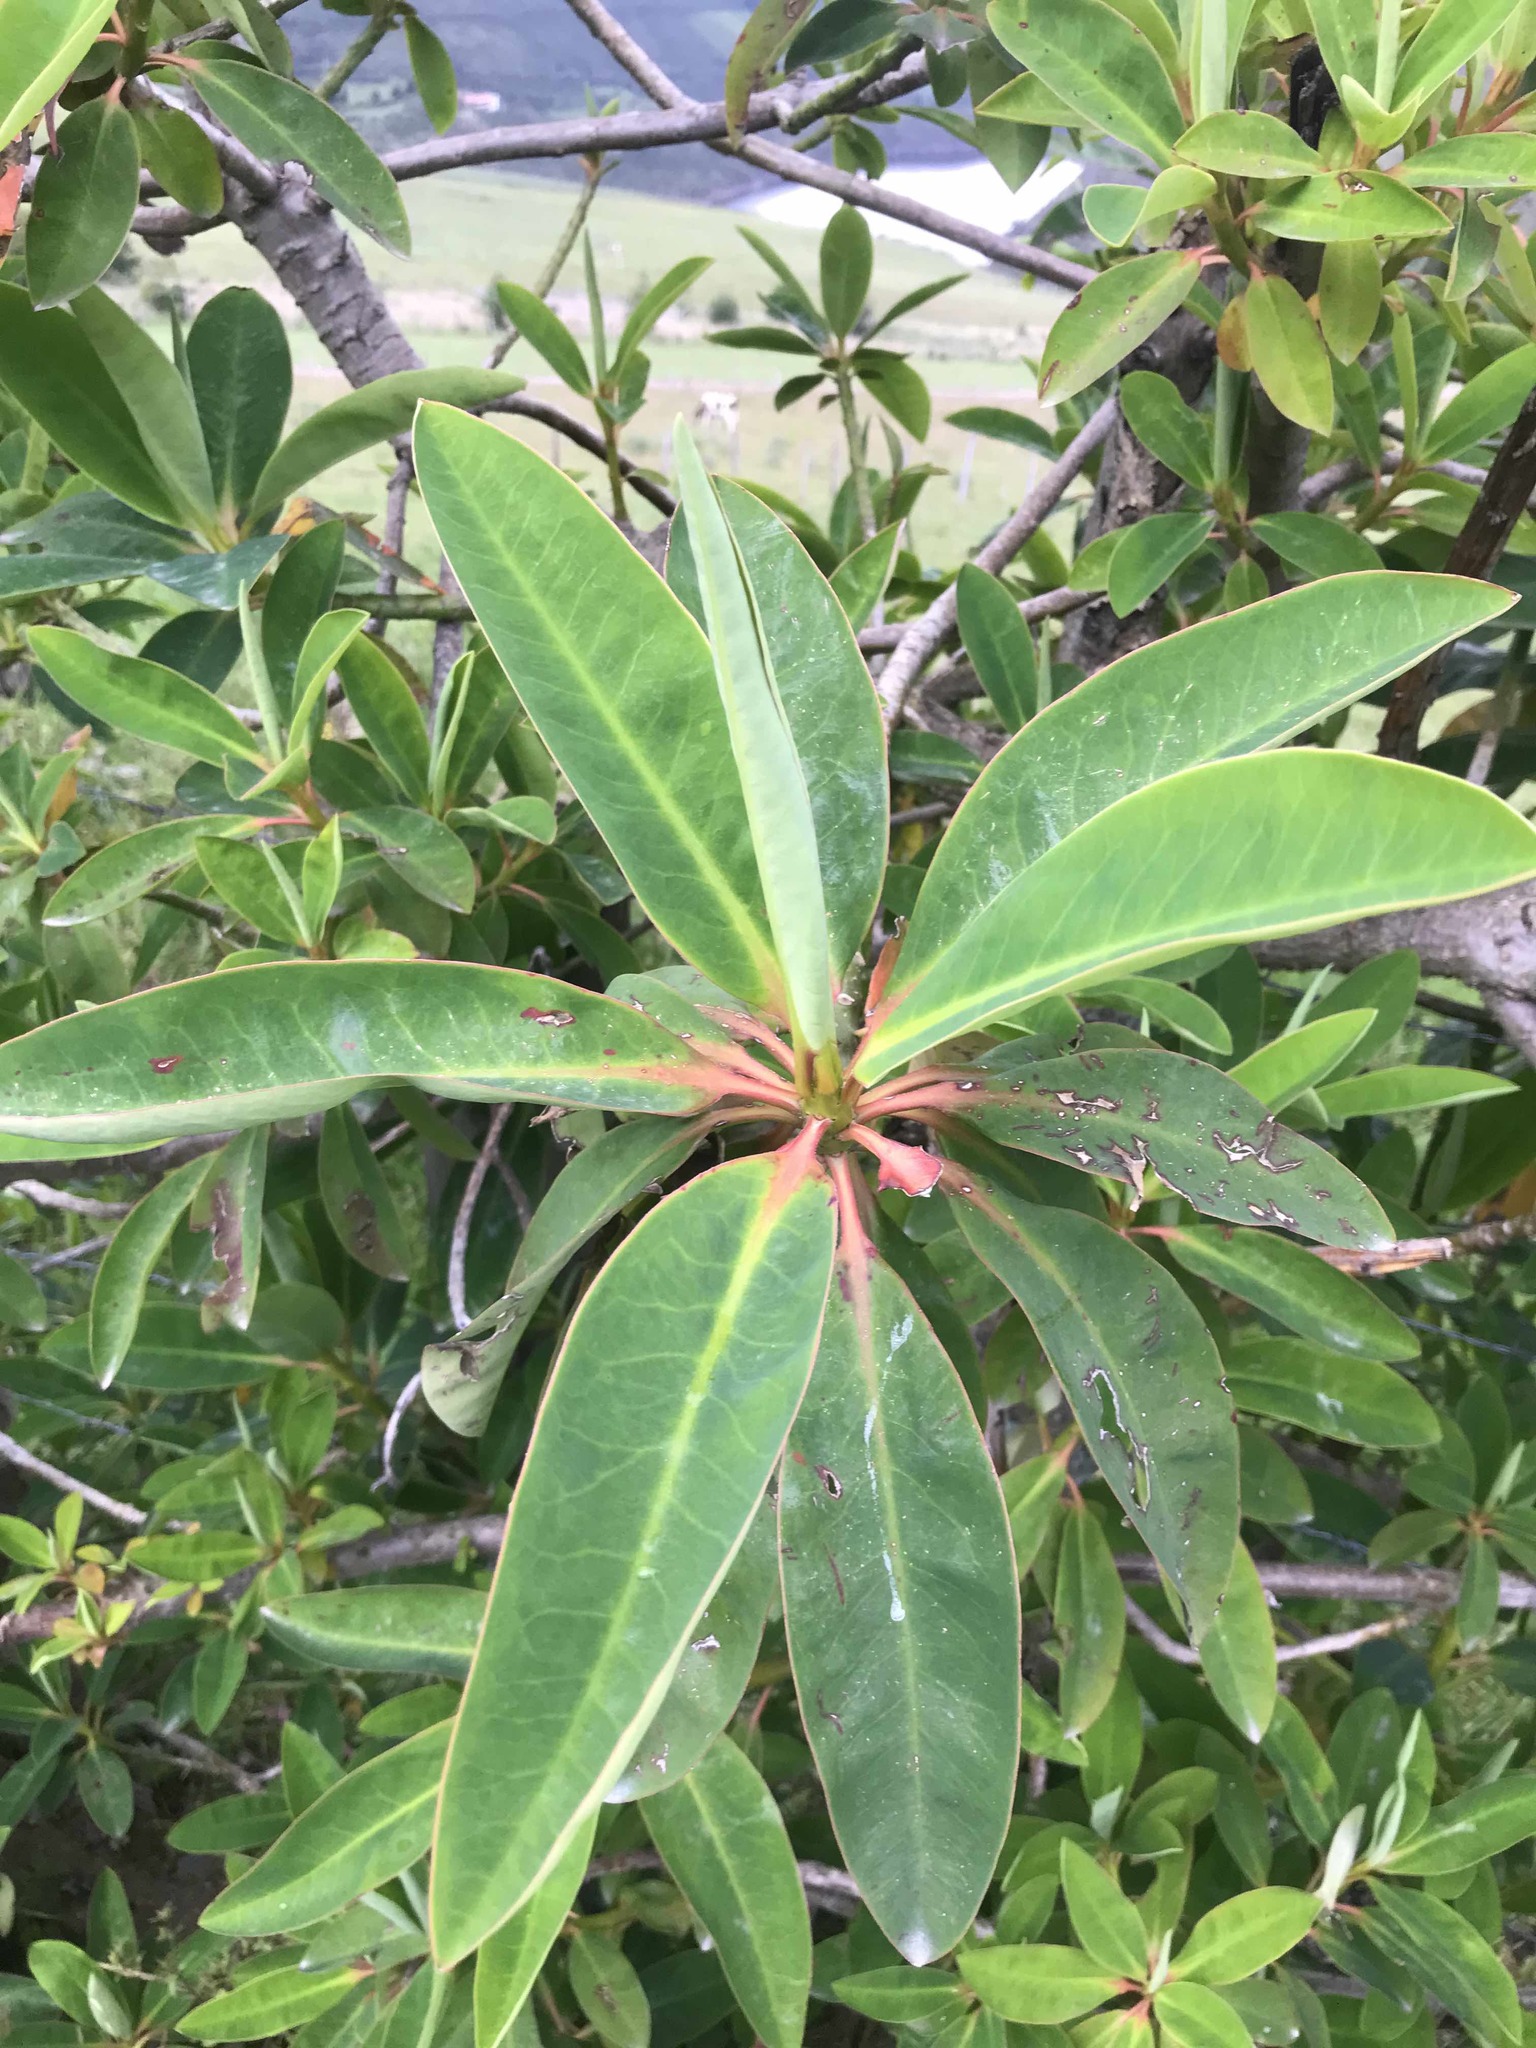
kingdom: Plantae
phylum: Tracheophyta
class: Magnoliopsida
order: Malpighiales
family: Euphorbiaceae
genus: Euphorbia
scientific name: Euphorbia laurifolia
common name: Lechero
